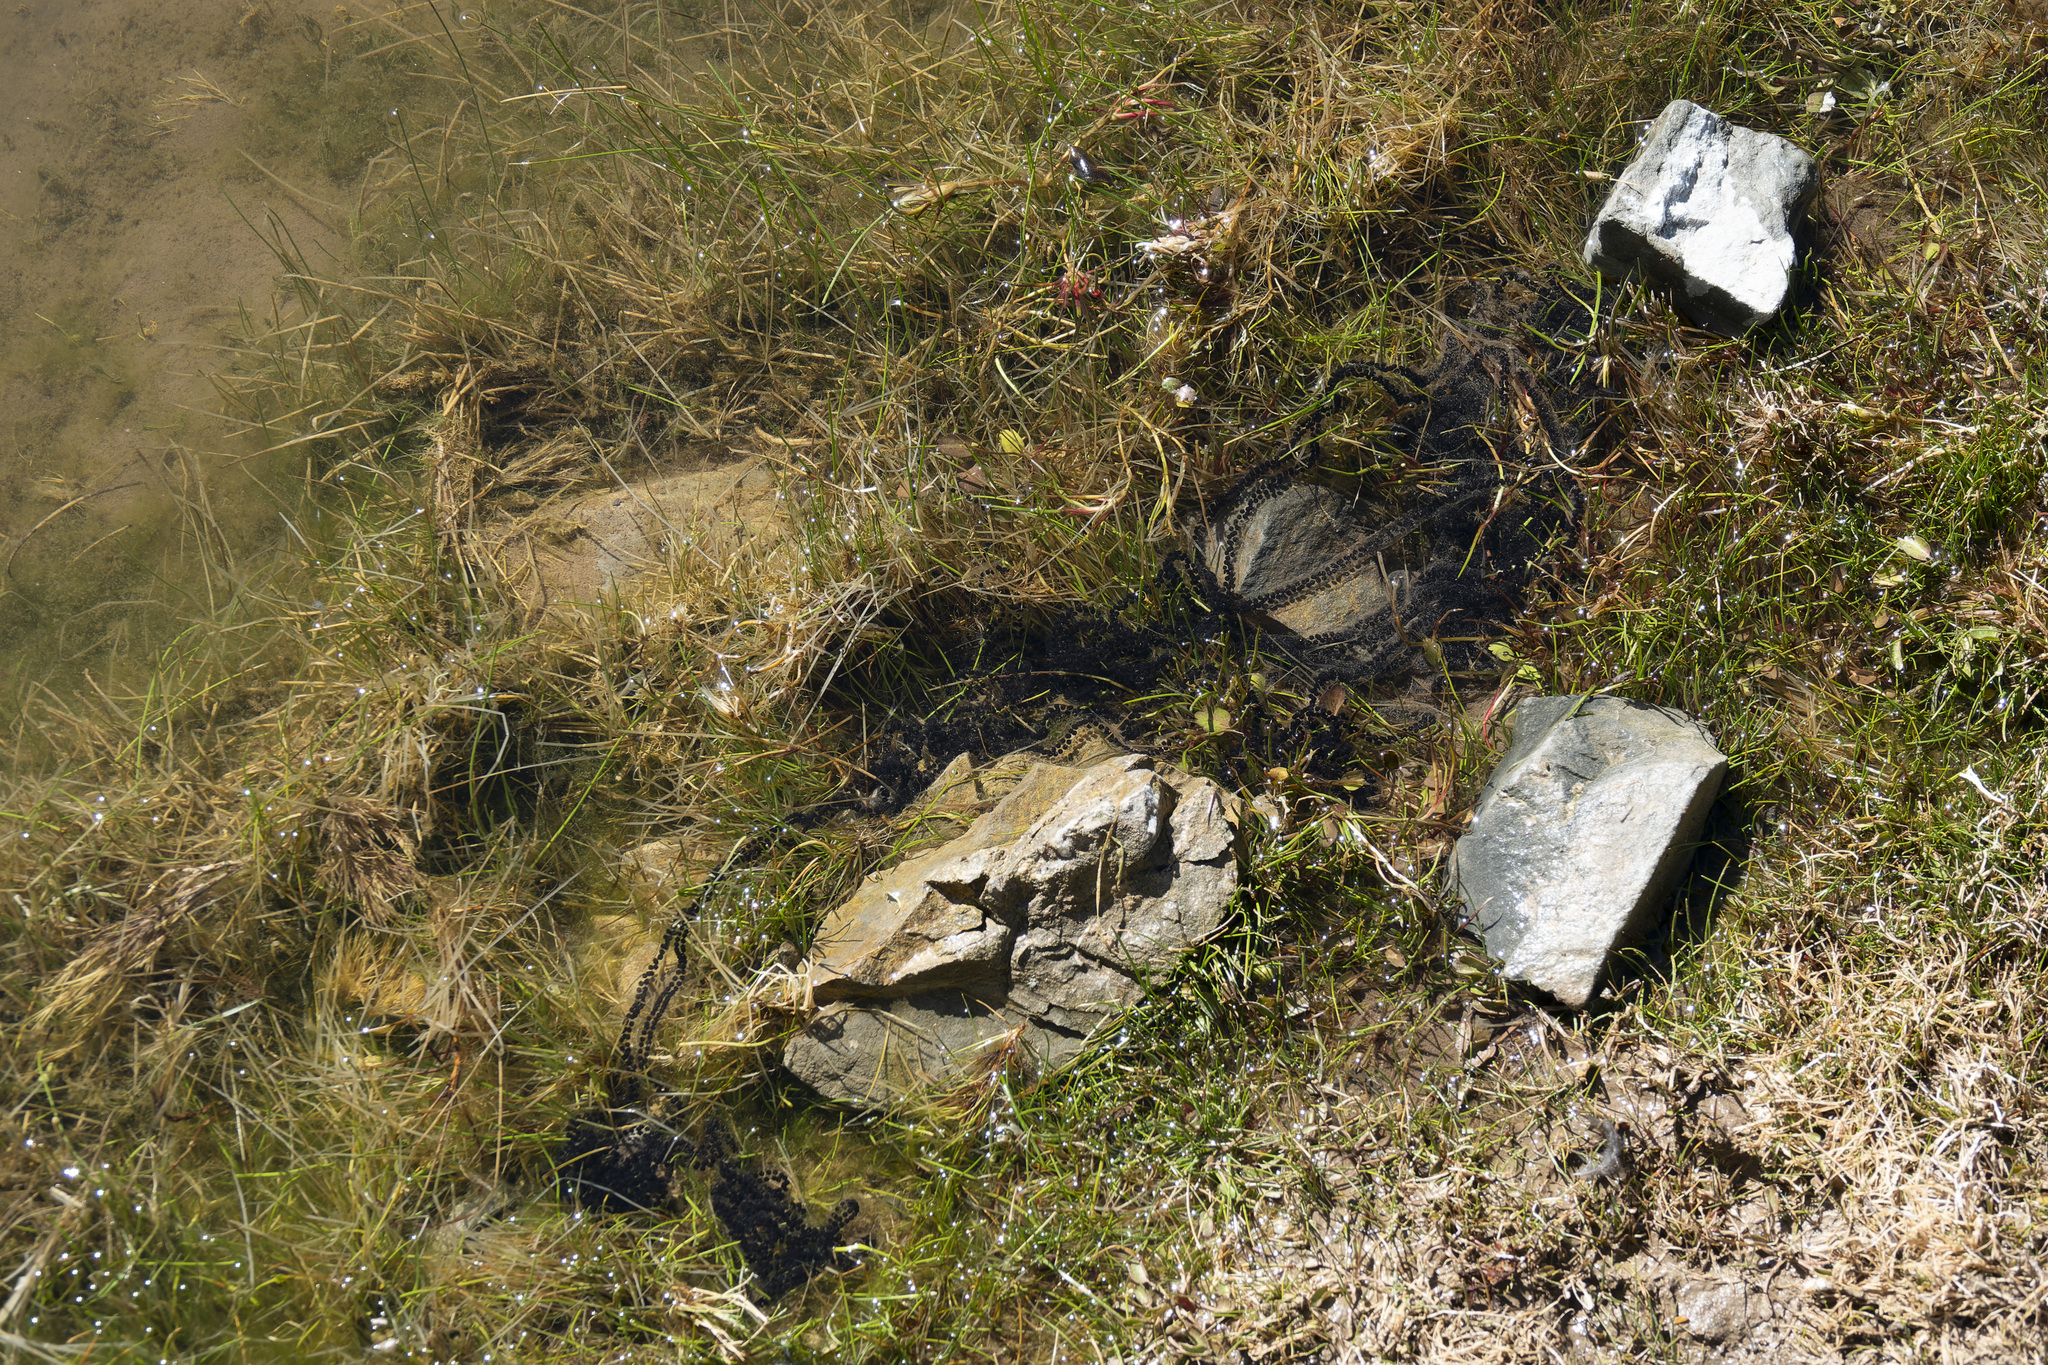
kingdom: Animalia
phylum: Chordata
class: Amphibia
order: Anura
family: Bufonidae
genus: Rhinella
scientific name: Rhinella arenarum
